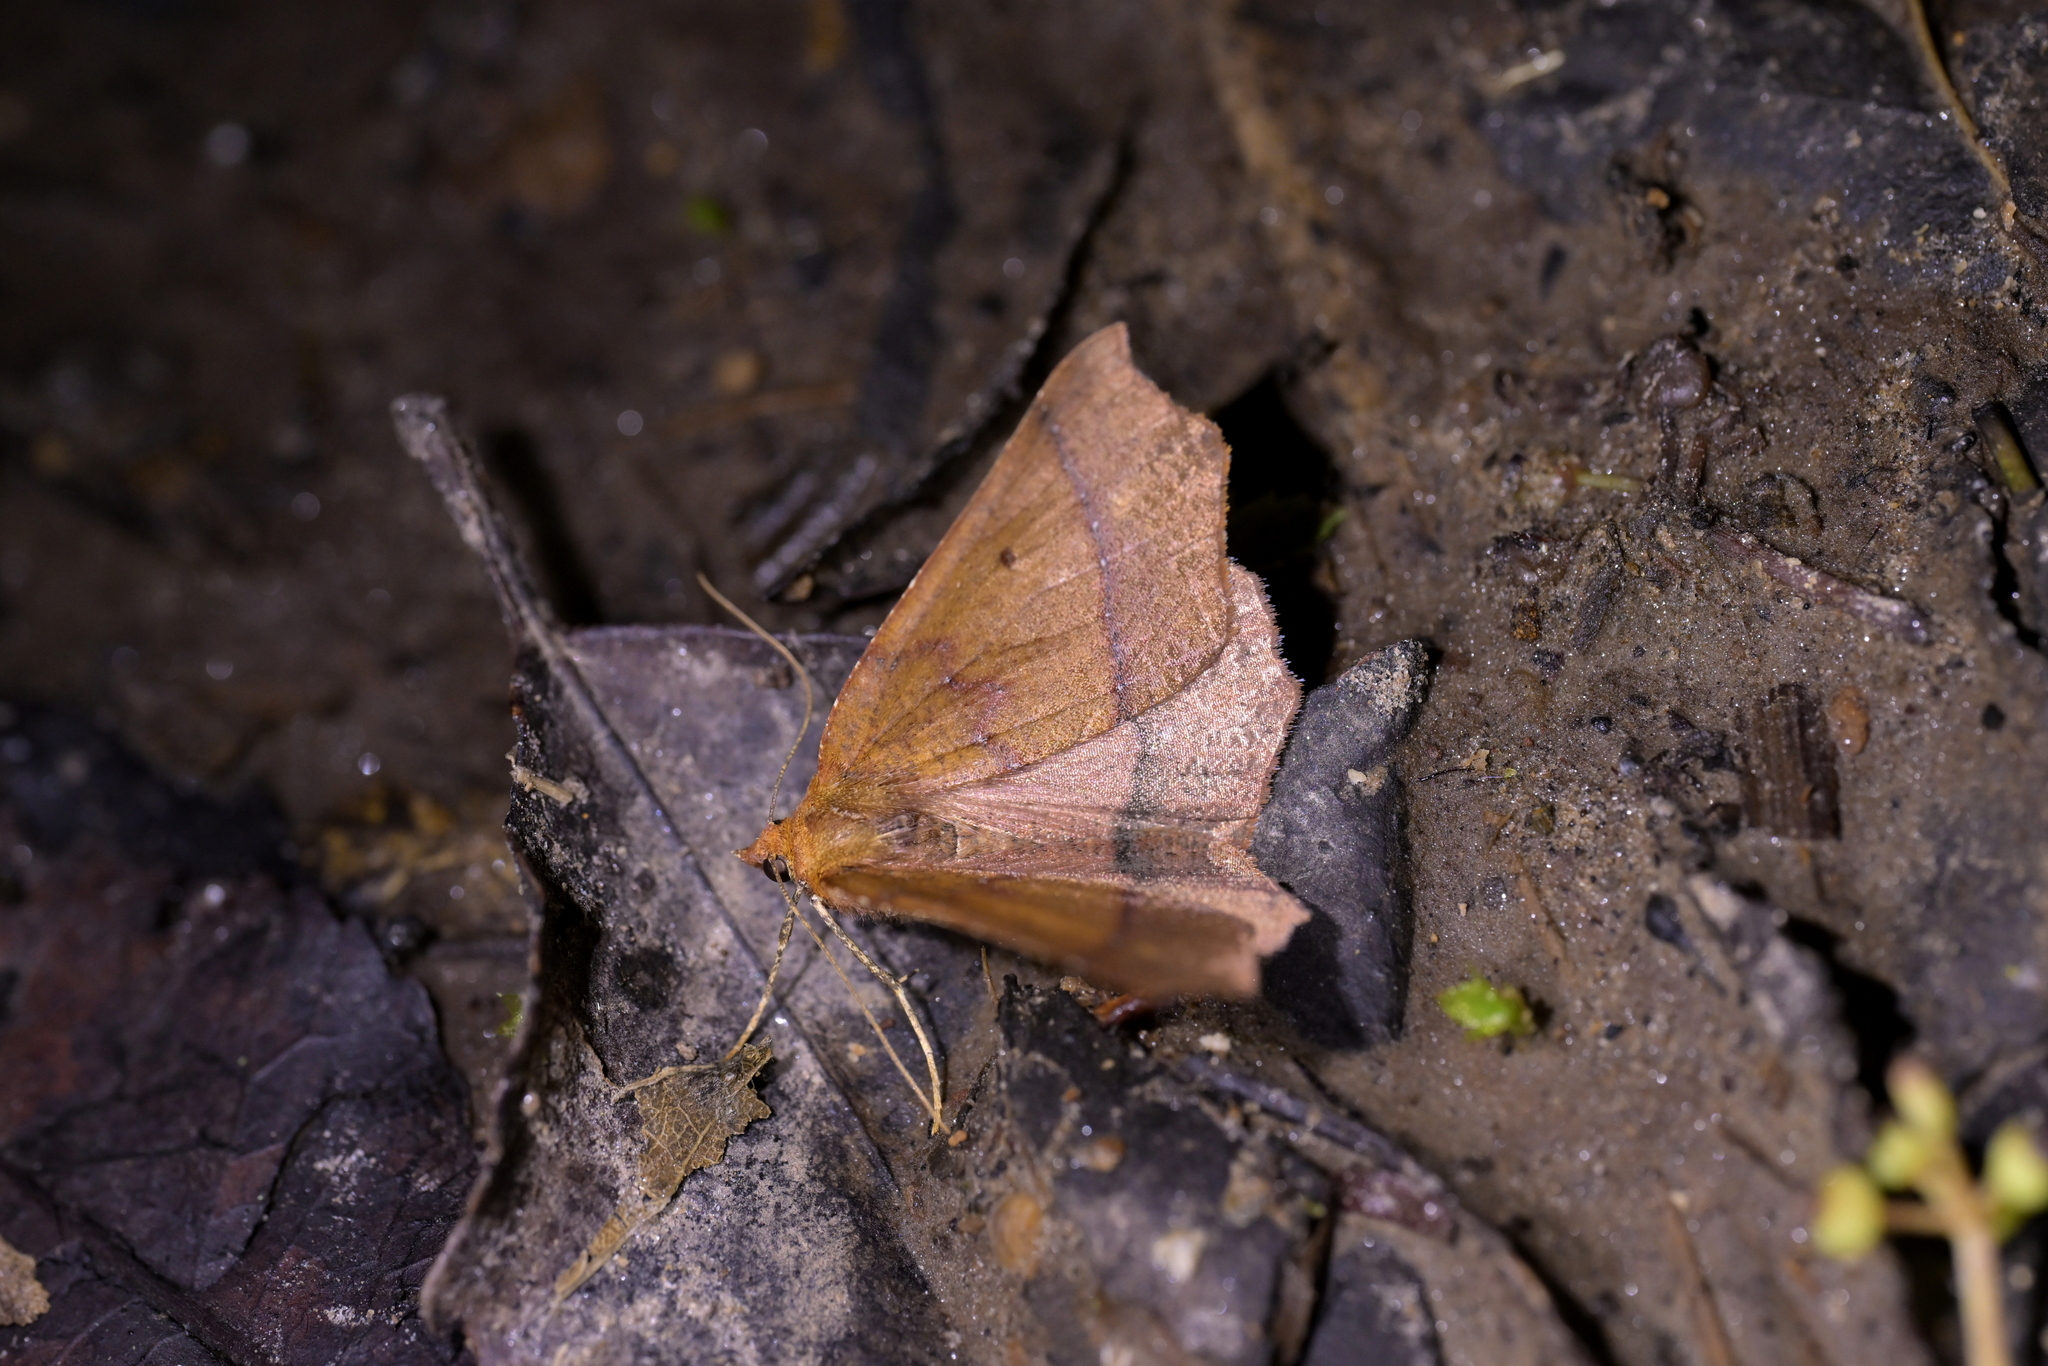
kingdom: Animalia
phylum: Arthropoda
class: Insecta
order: Lepidoptera
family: Geometridae
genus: Ischalis
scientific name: Ischalis nelsonaria
